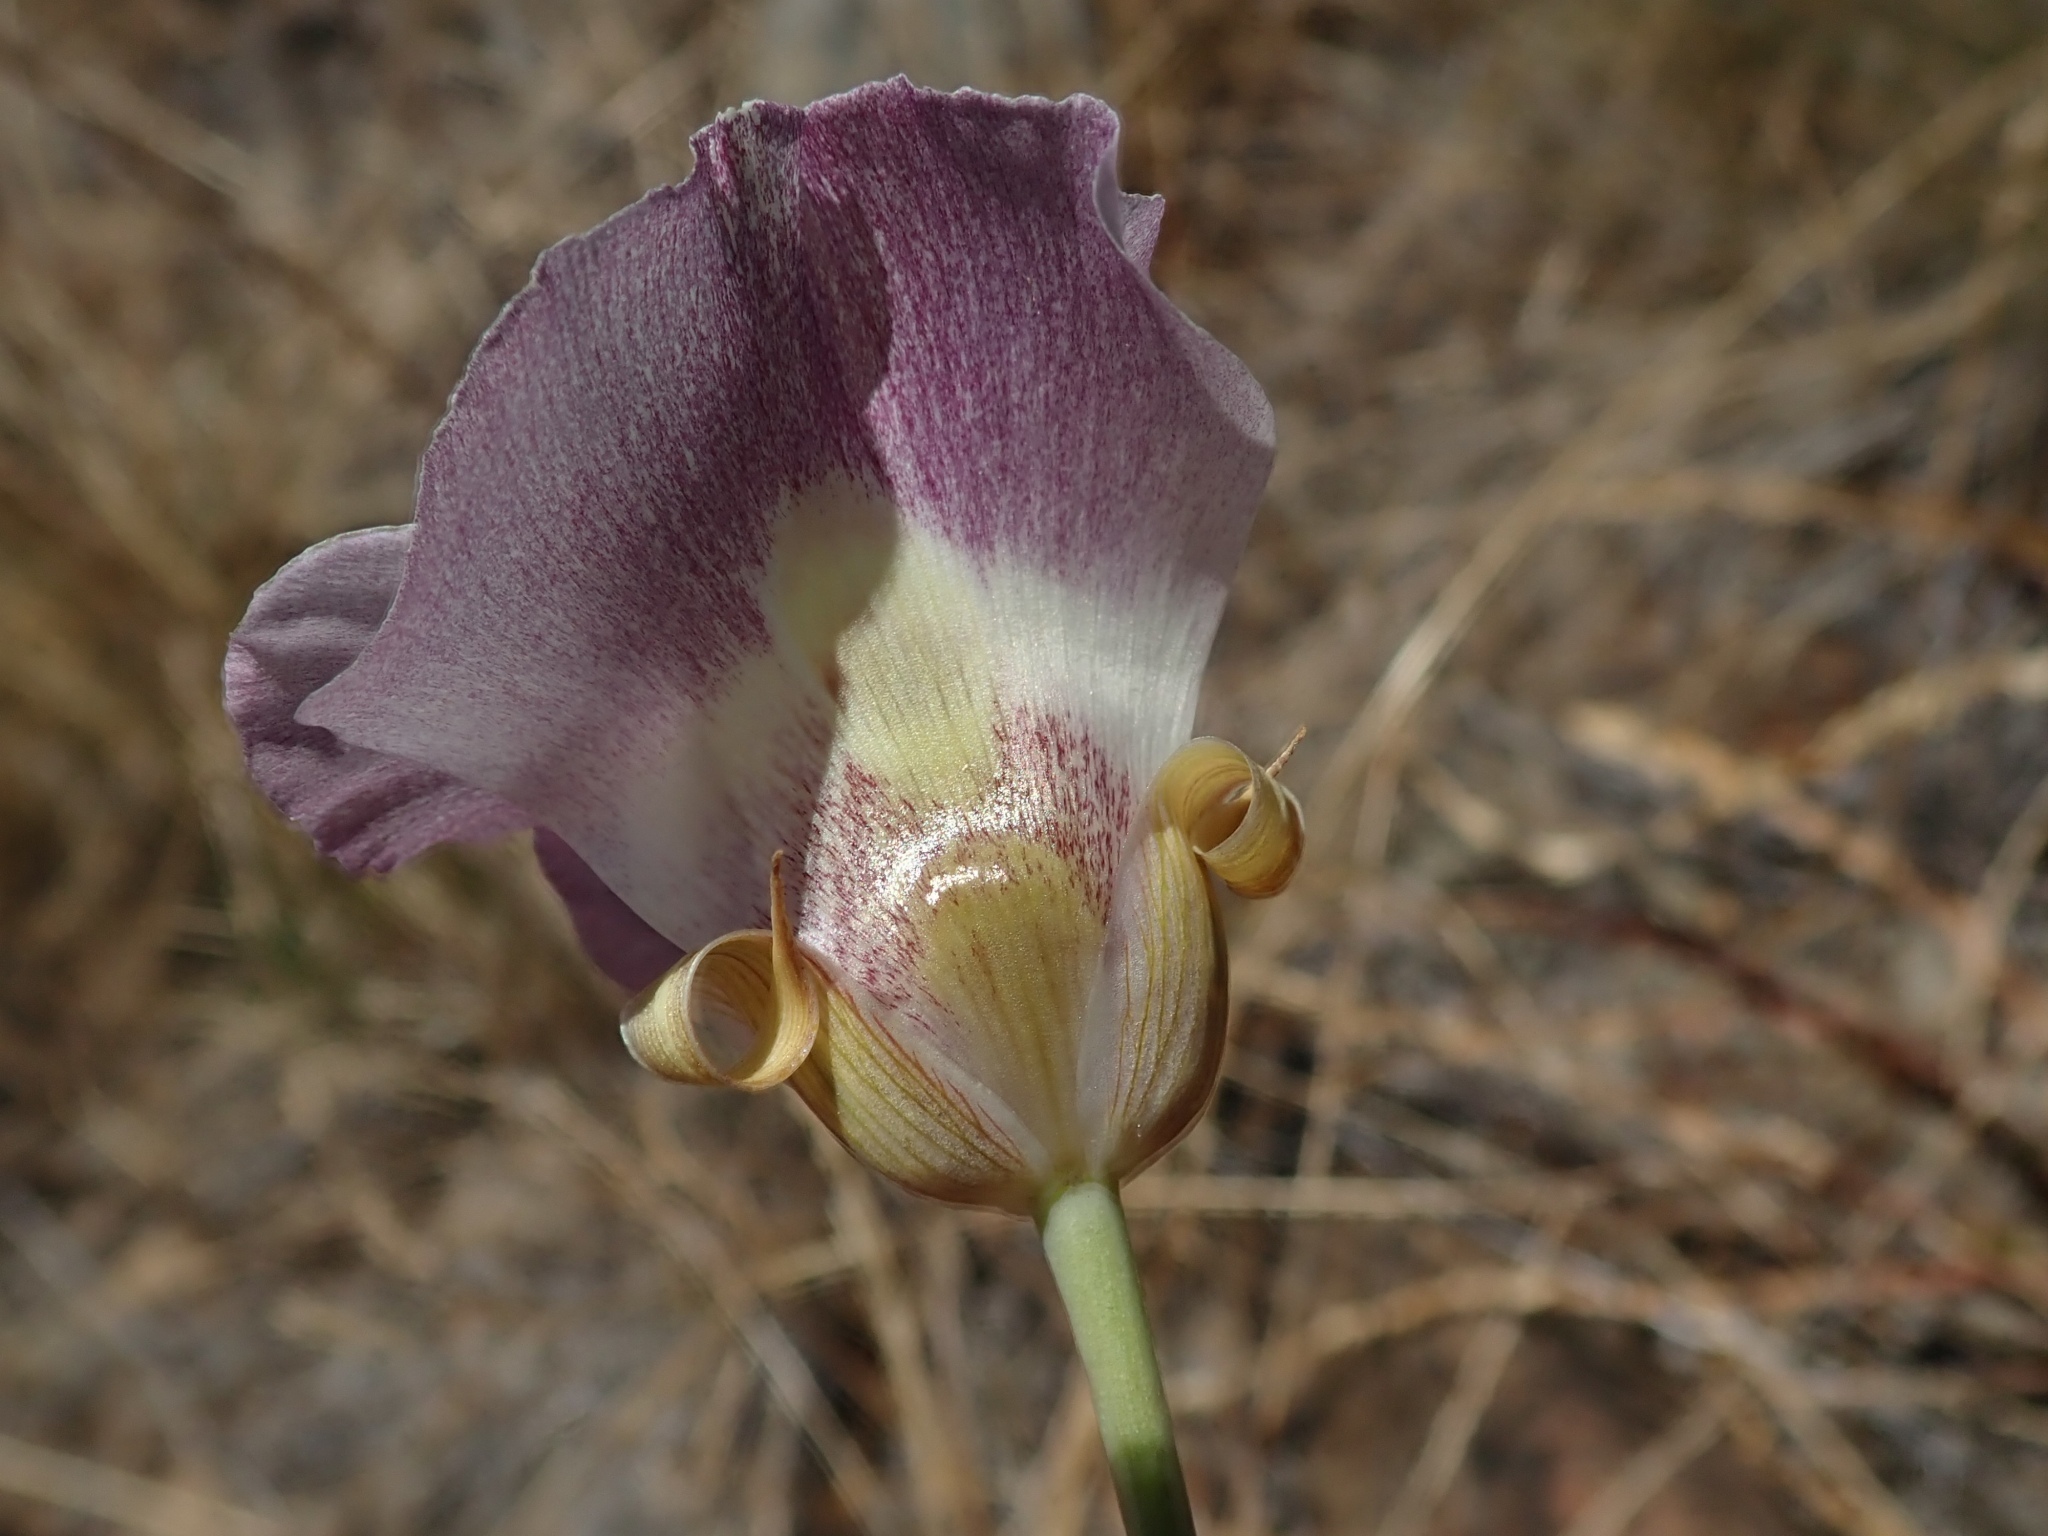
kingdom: Plantae
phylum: Tracheophyta
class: Liliopsida
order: Liliales
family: Liliaceae
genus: Calochortus
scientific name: Calochortus argillosus
